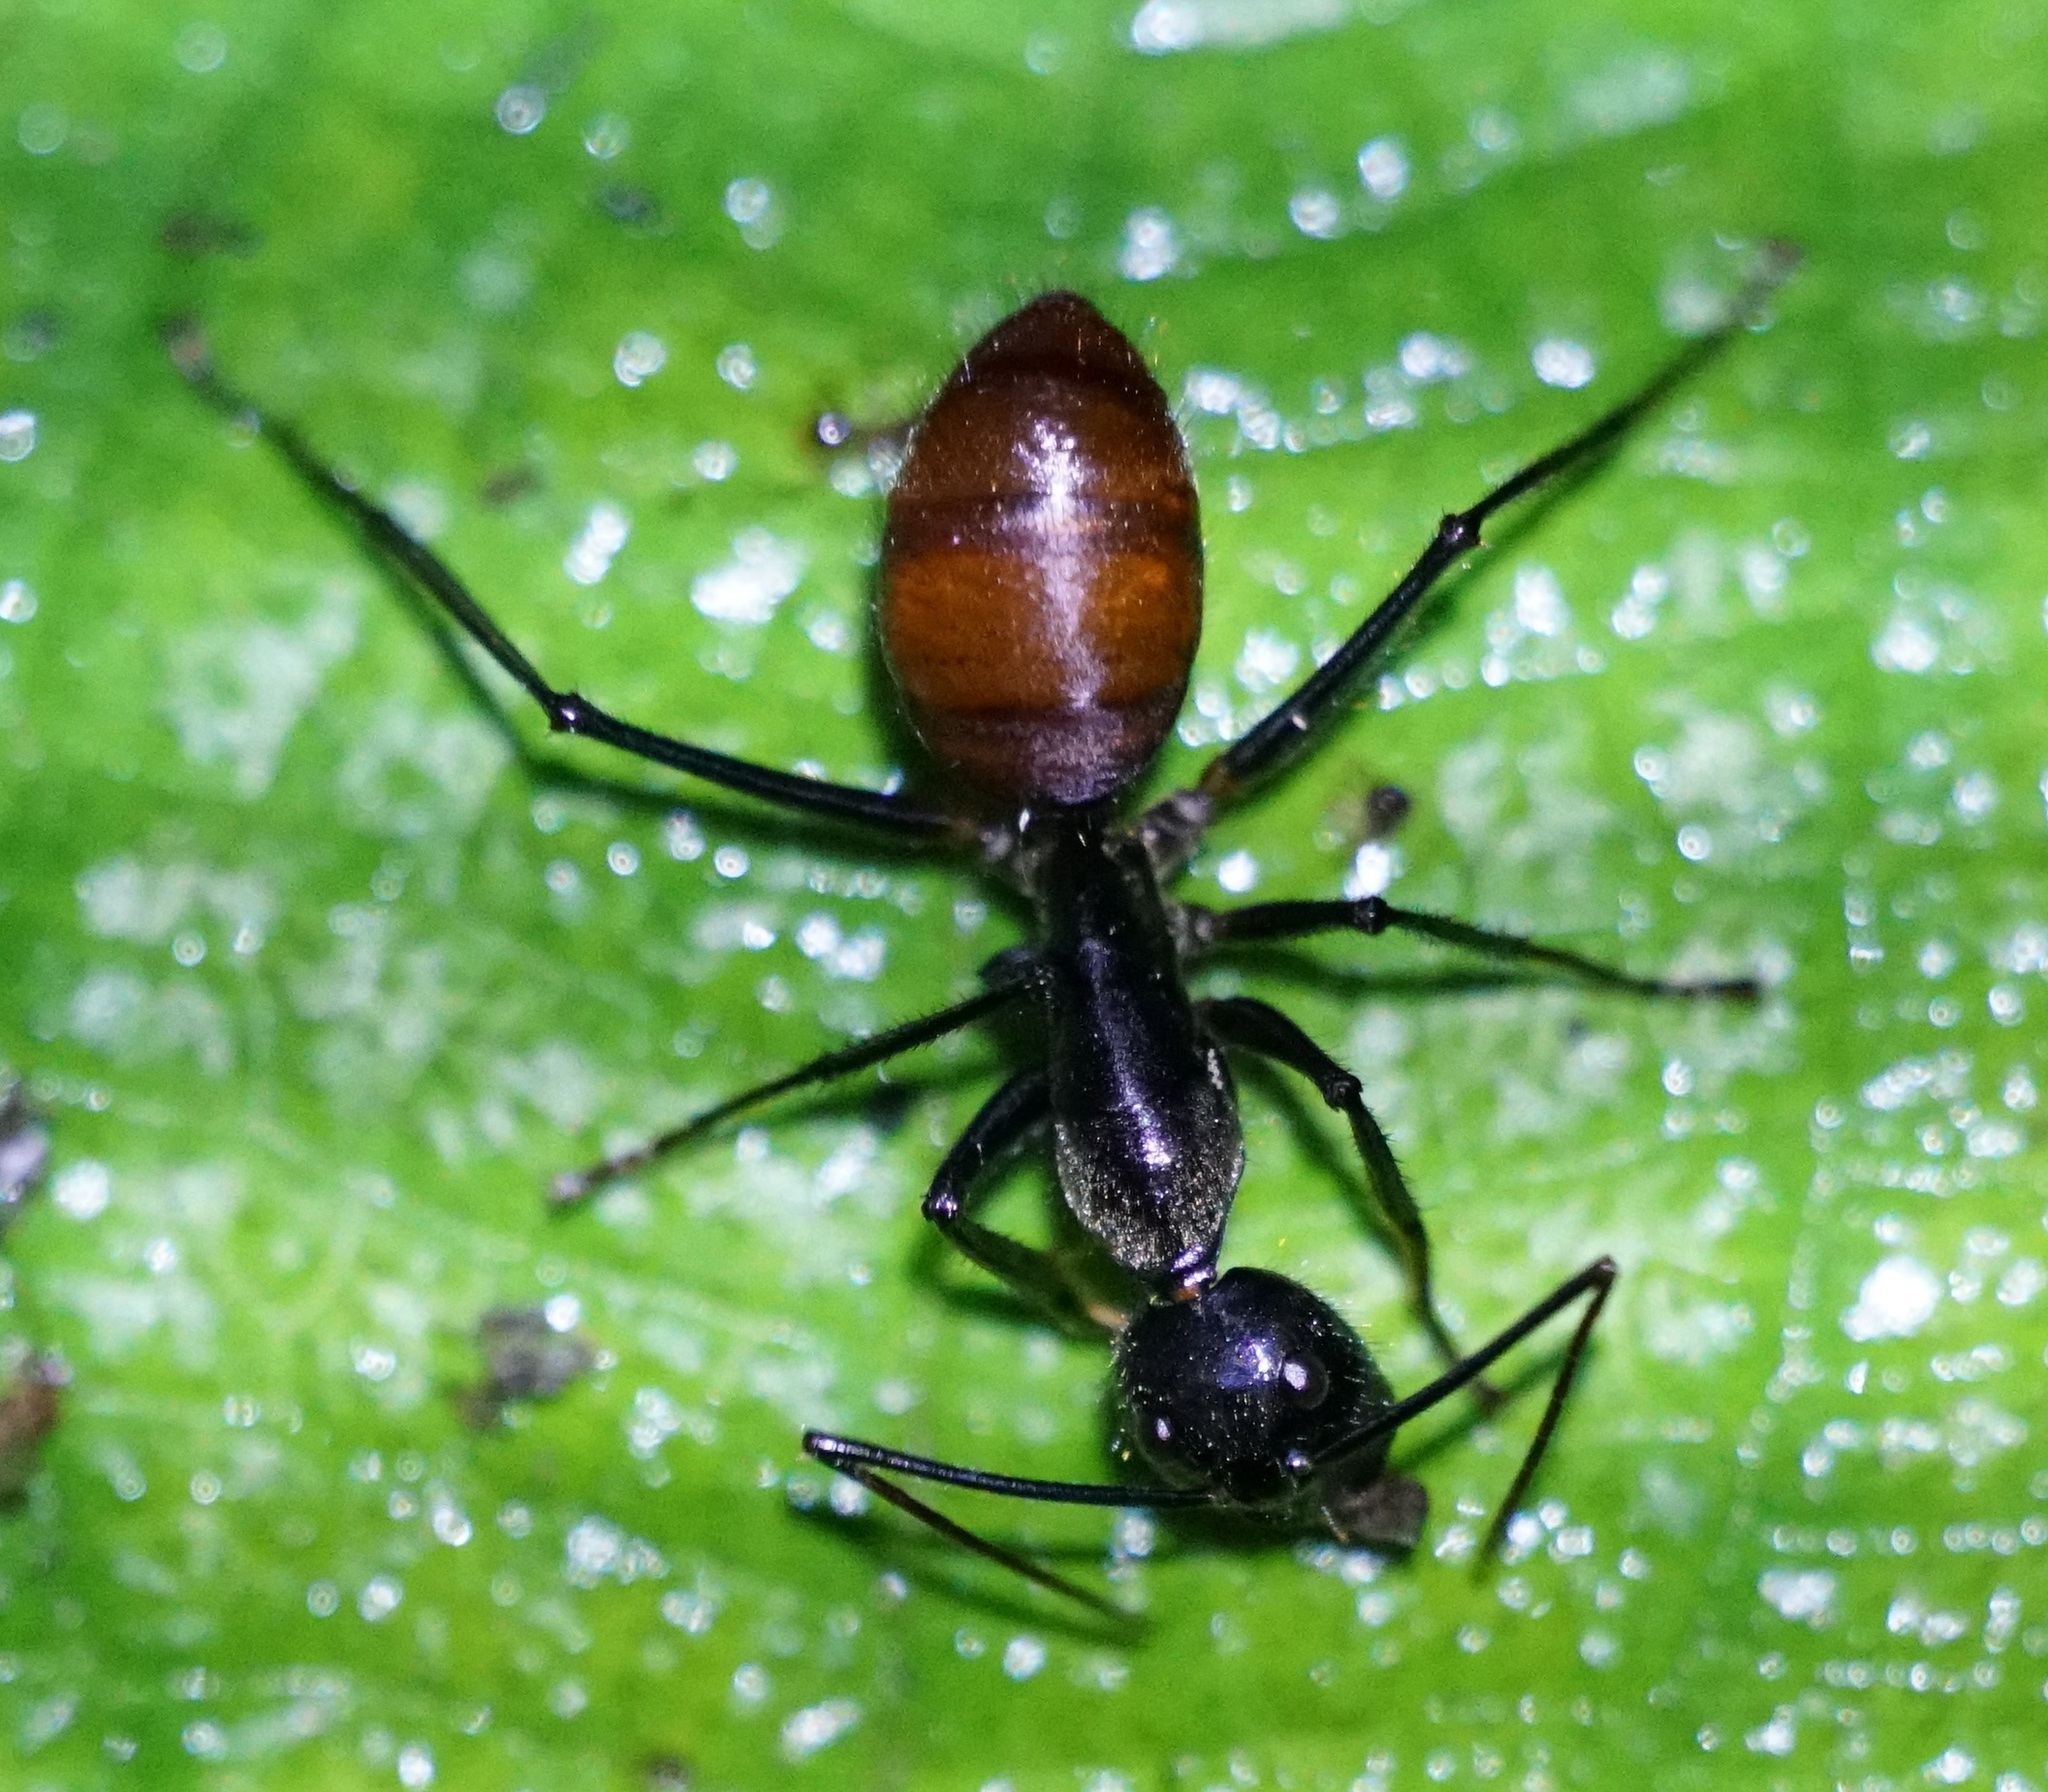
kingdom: Animalia
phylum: Arthropoda
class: Insecta
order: Hymenoptera
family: Formicidae
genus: Dinomyrmex
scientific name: Dinomyrmex
